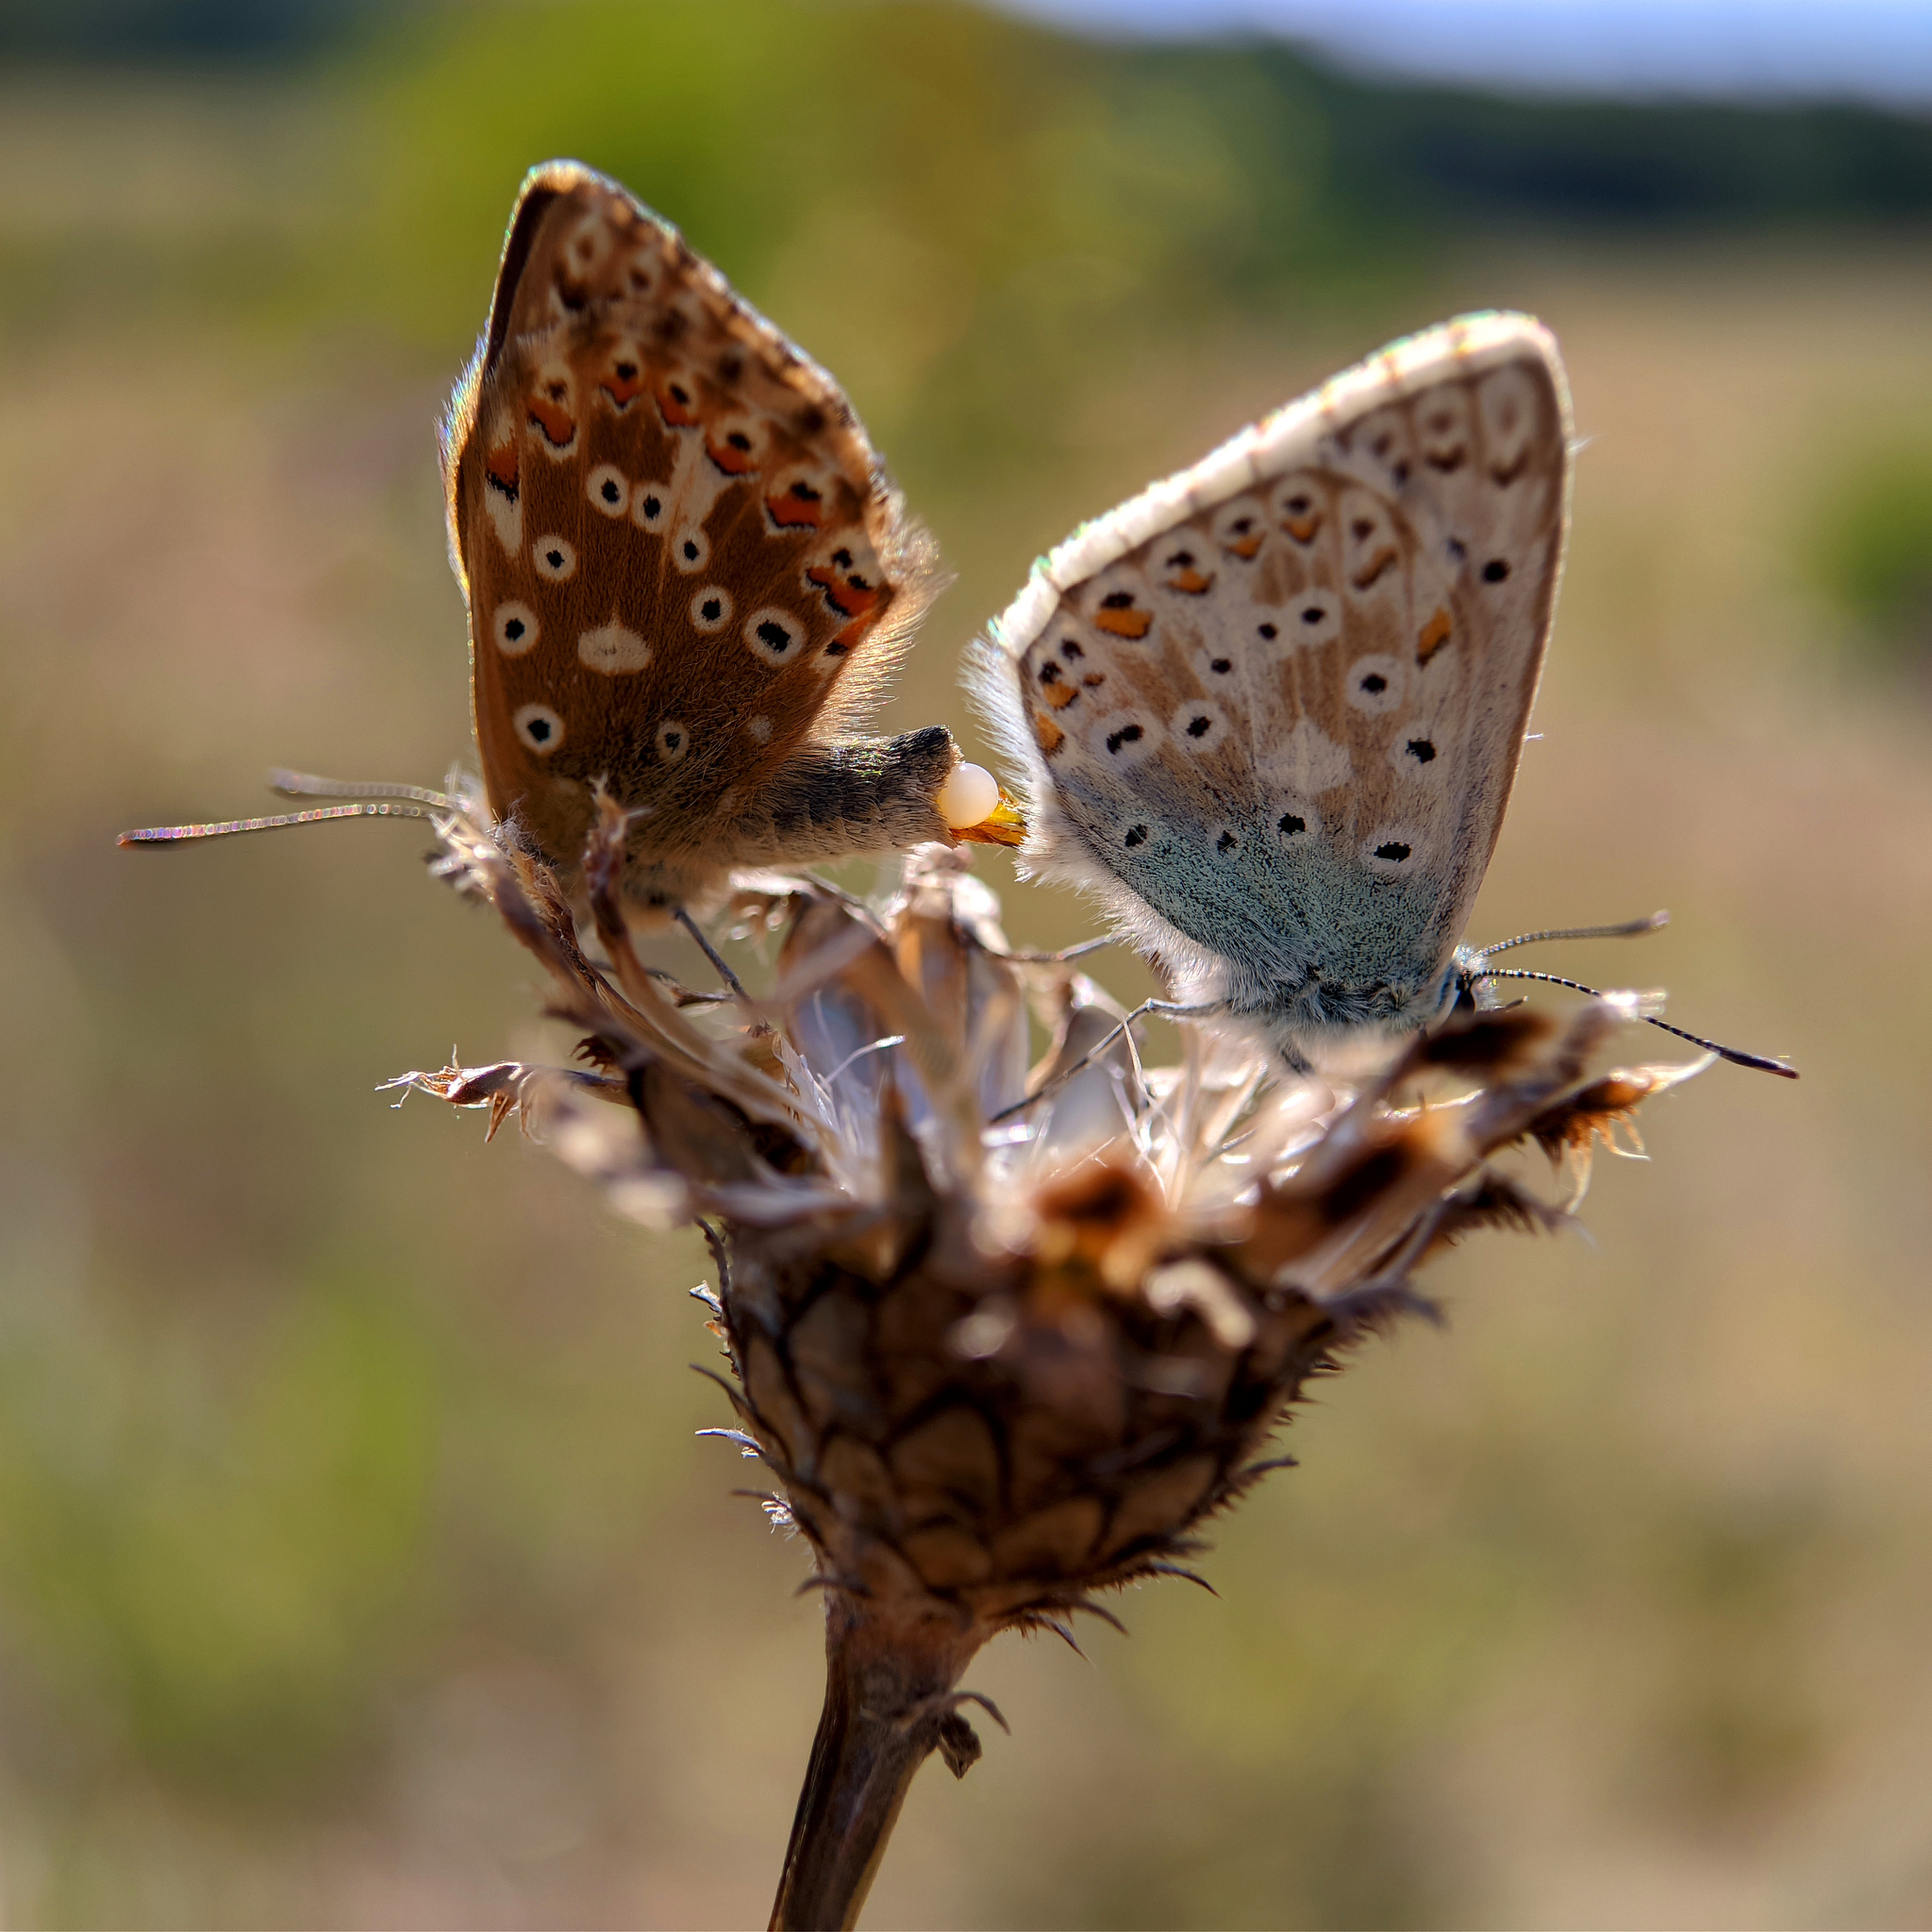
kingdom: Animalia
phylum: Arthropoda
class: Insecta
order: Lepidoptera
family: Lycaenidae
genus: Lysandra
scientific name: Lysandra coridon
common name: Chalkhill blue
